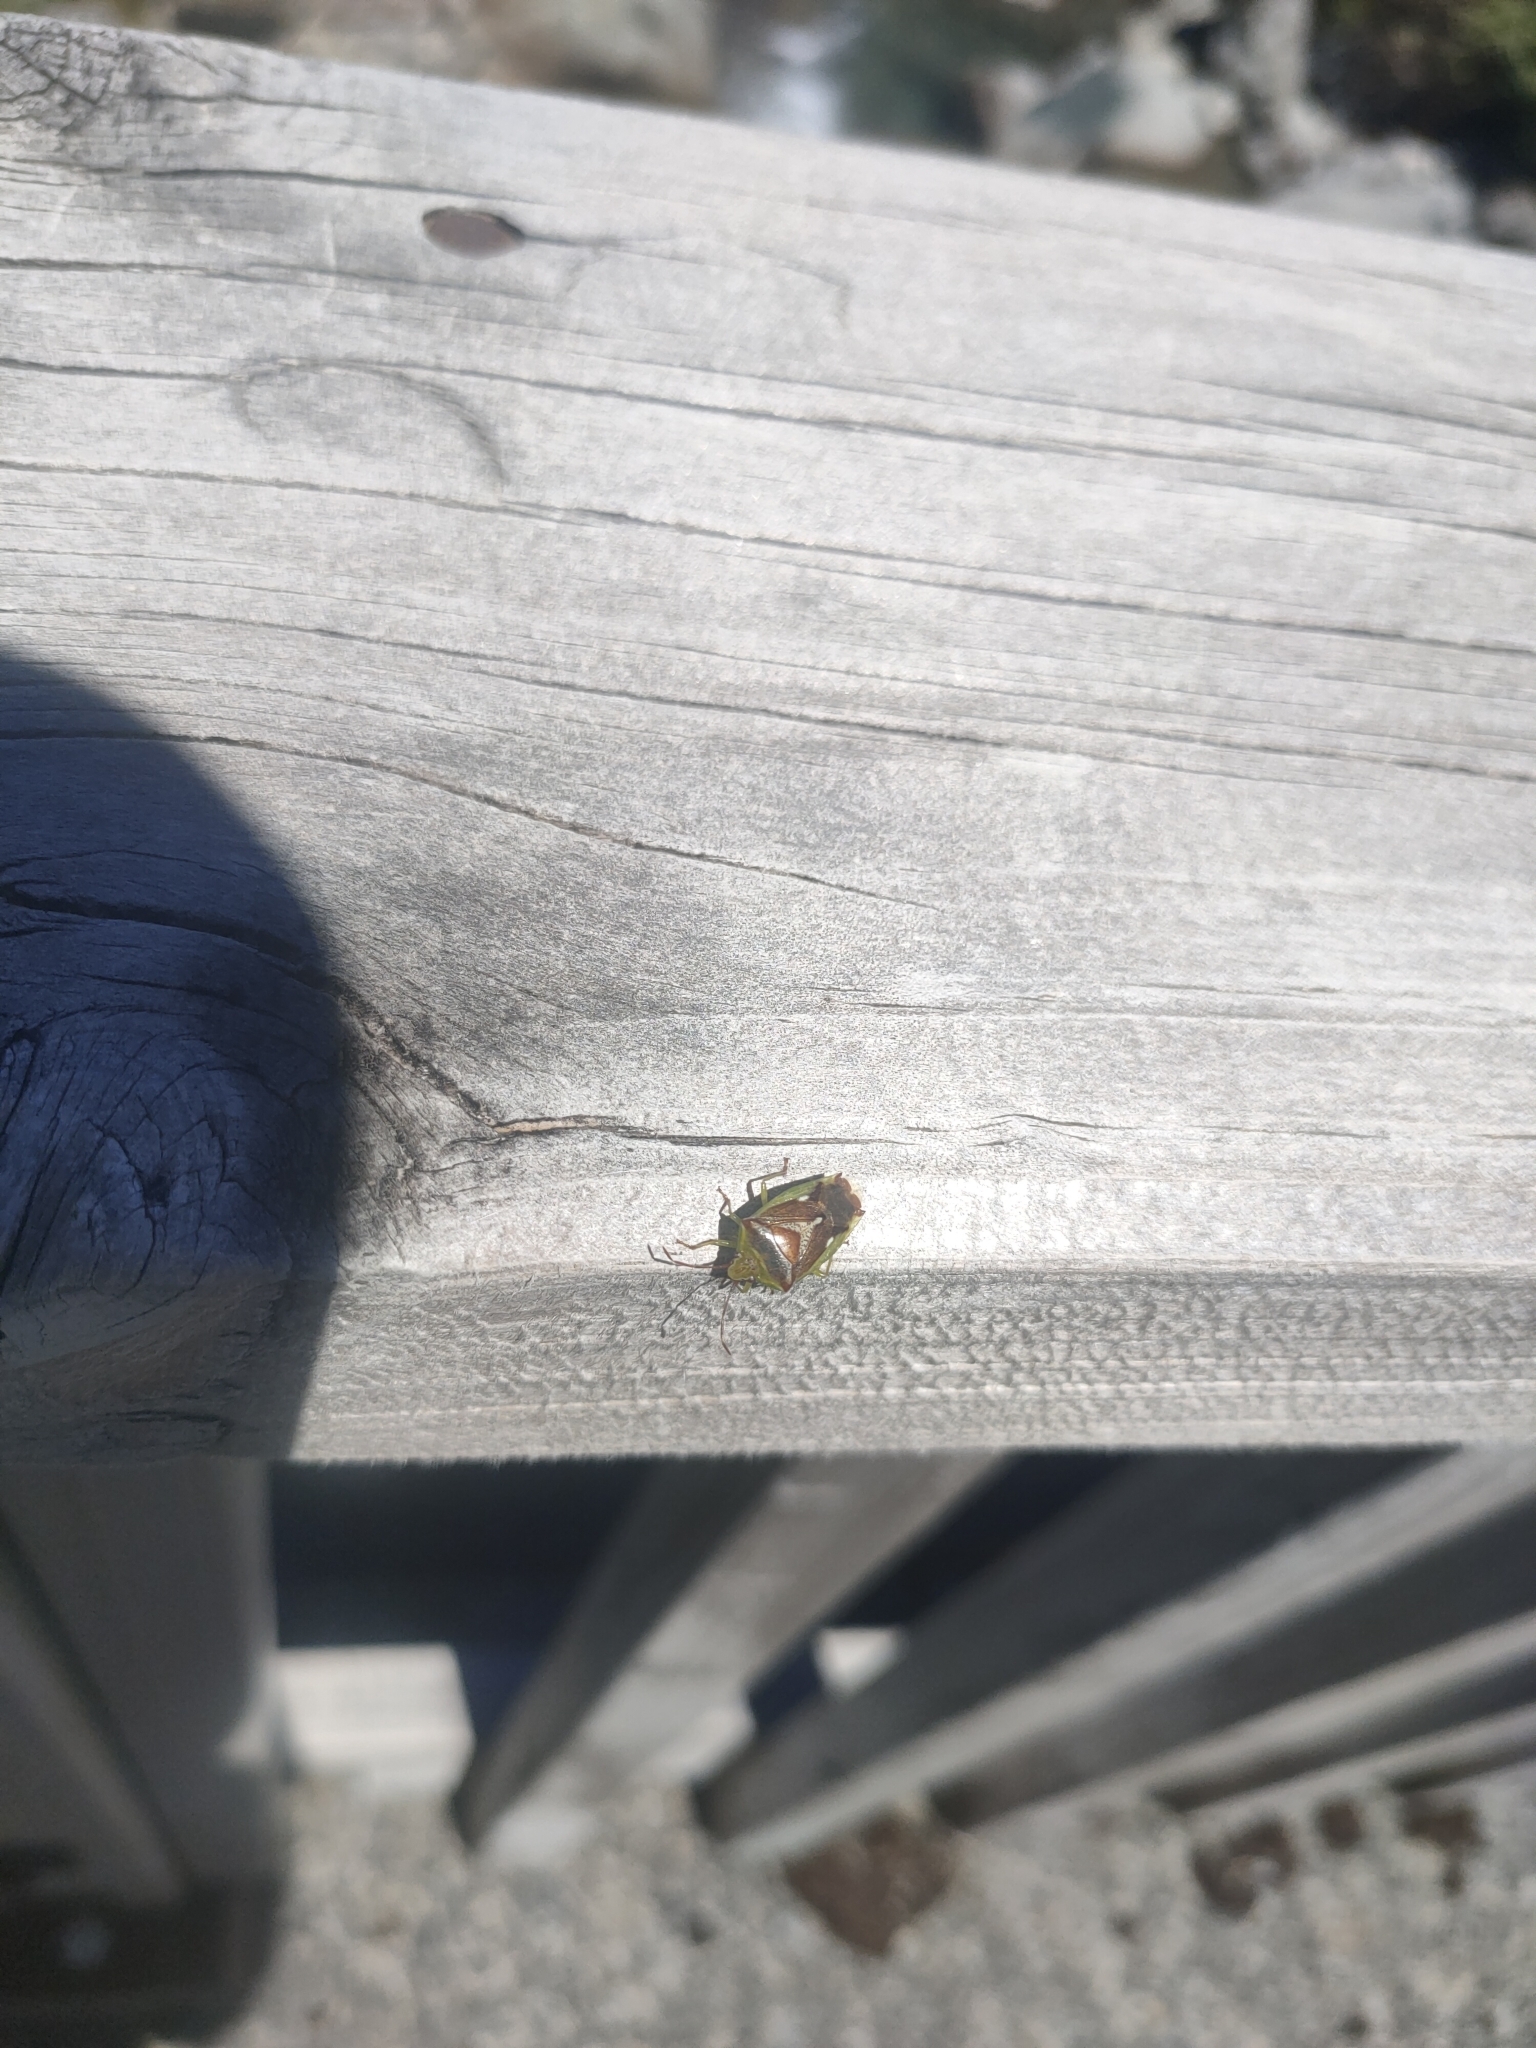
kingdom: Animalia
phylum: Arthropoda
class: Insecta
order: Hemiptera
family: Acanthosomatidae
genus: Oncacontias
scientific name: Oncacontias vittatus
